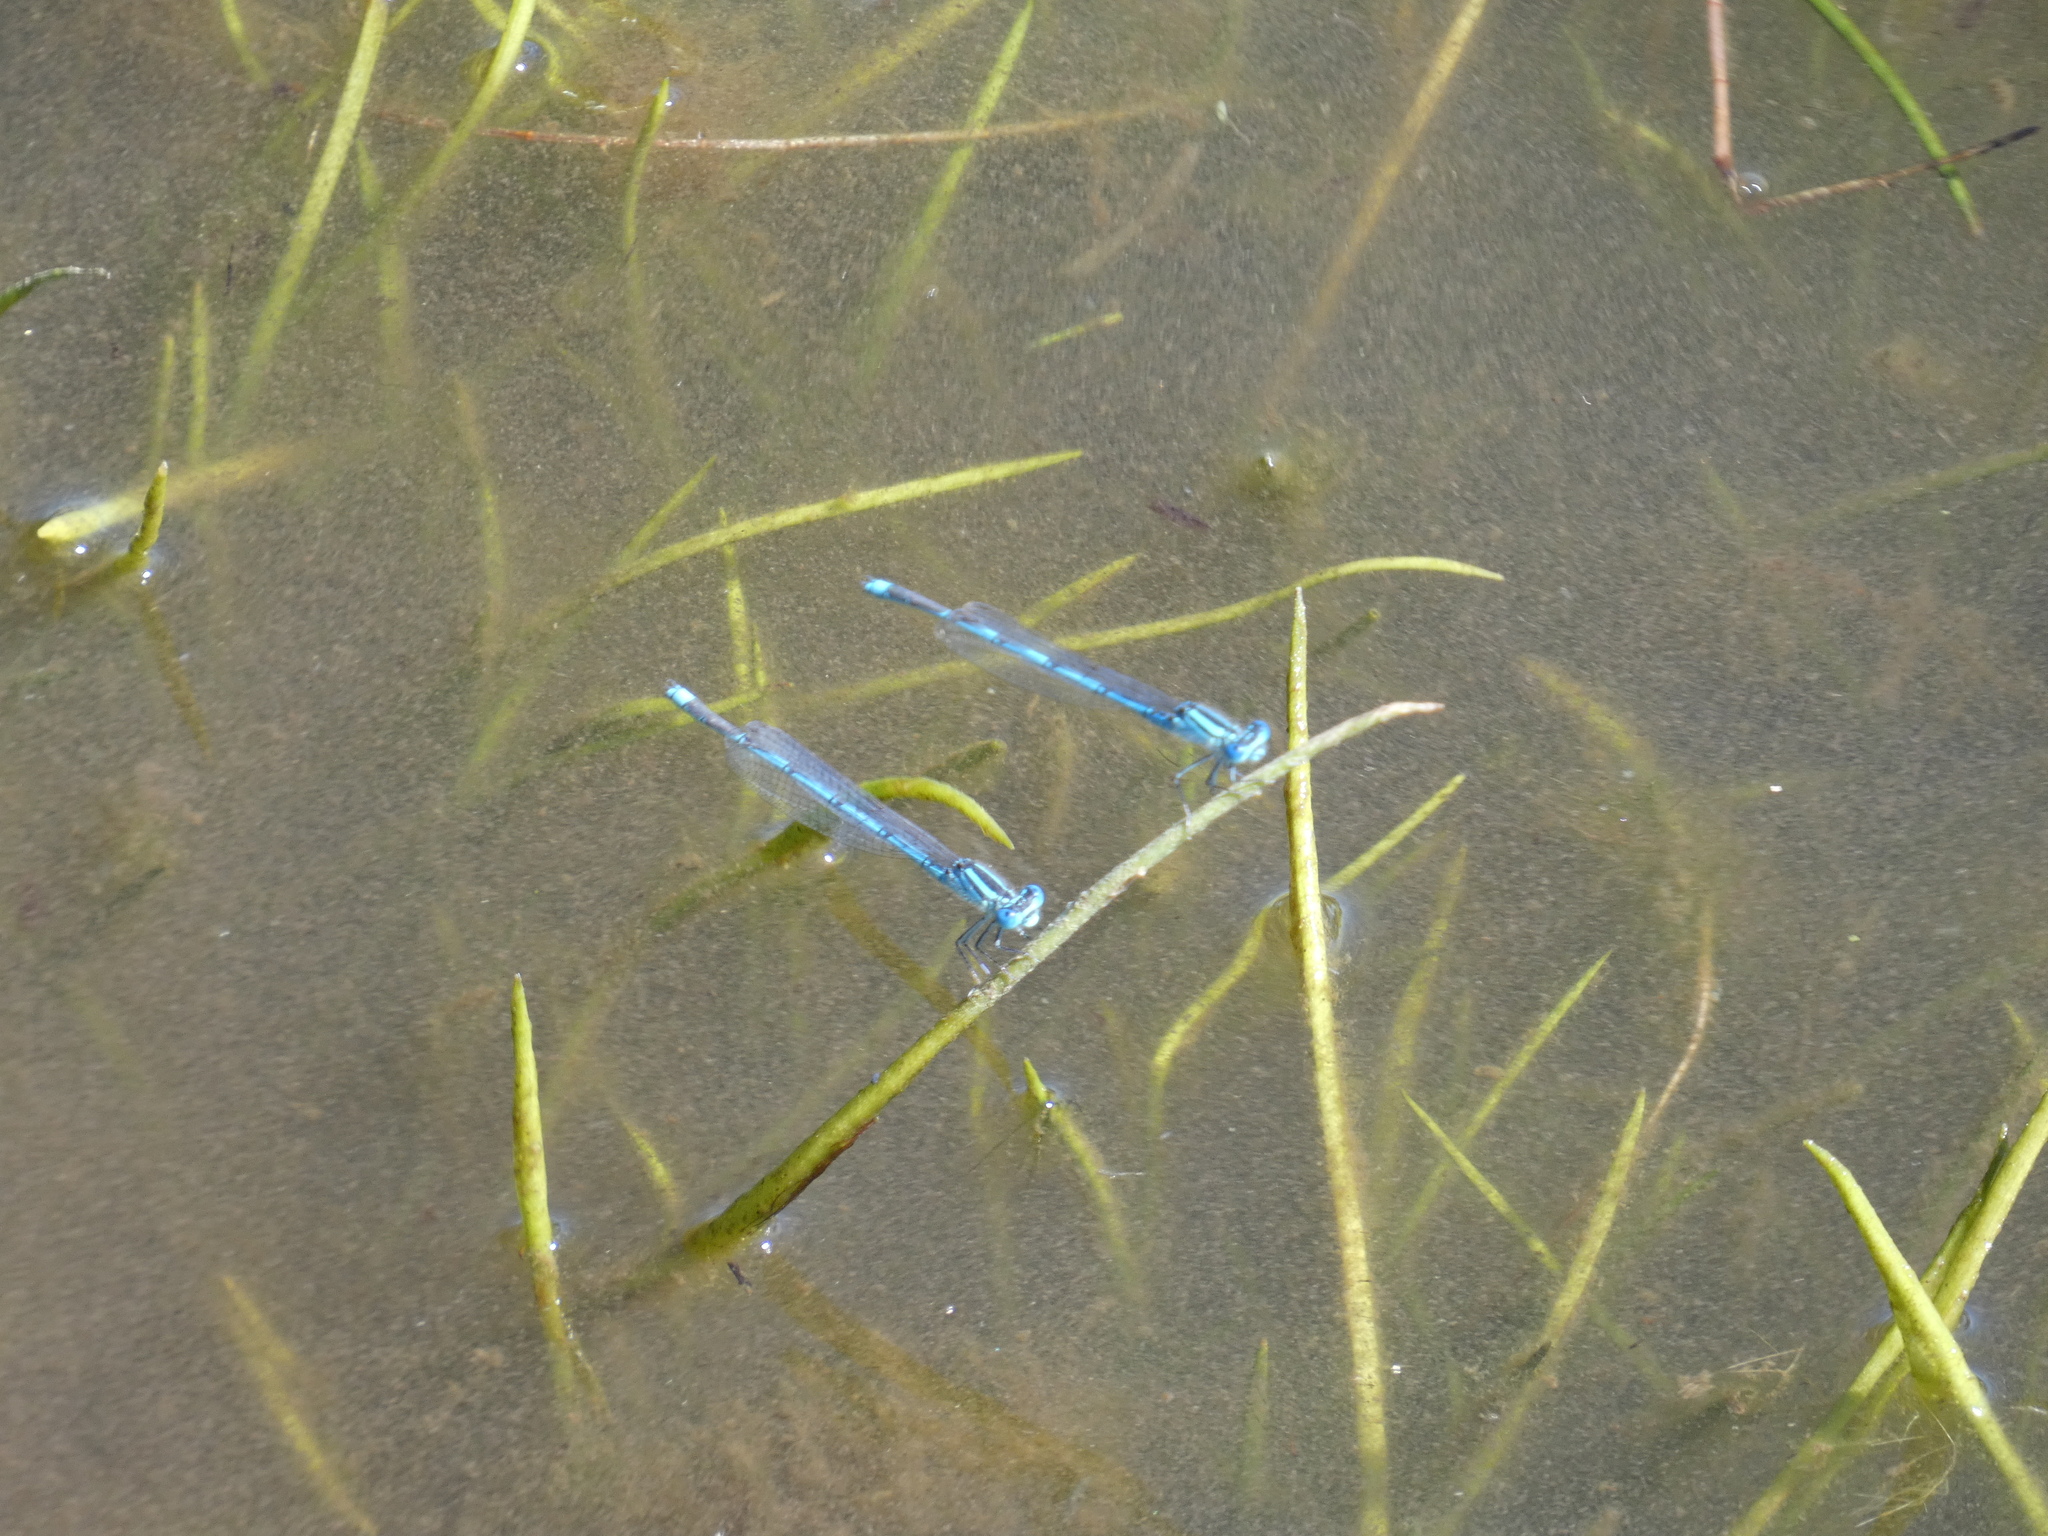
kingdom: Animalia
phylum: Arthropoda
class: Insecta
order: Odonata
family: Coenagrionidae
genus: Erythromma
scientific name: Erythromma lindenii
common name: Blue-eye
